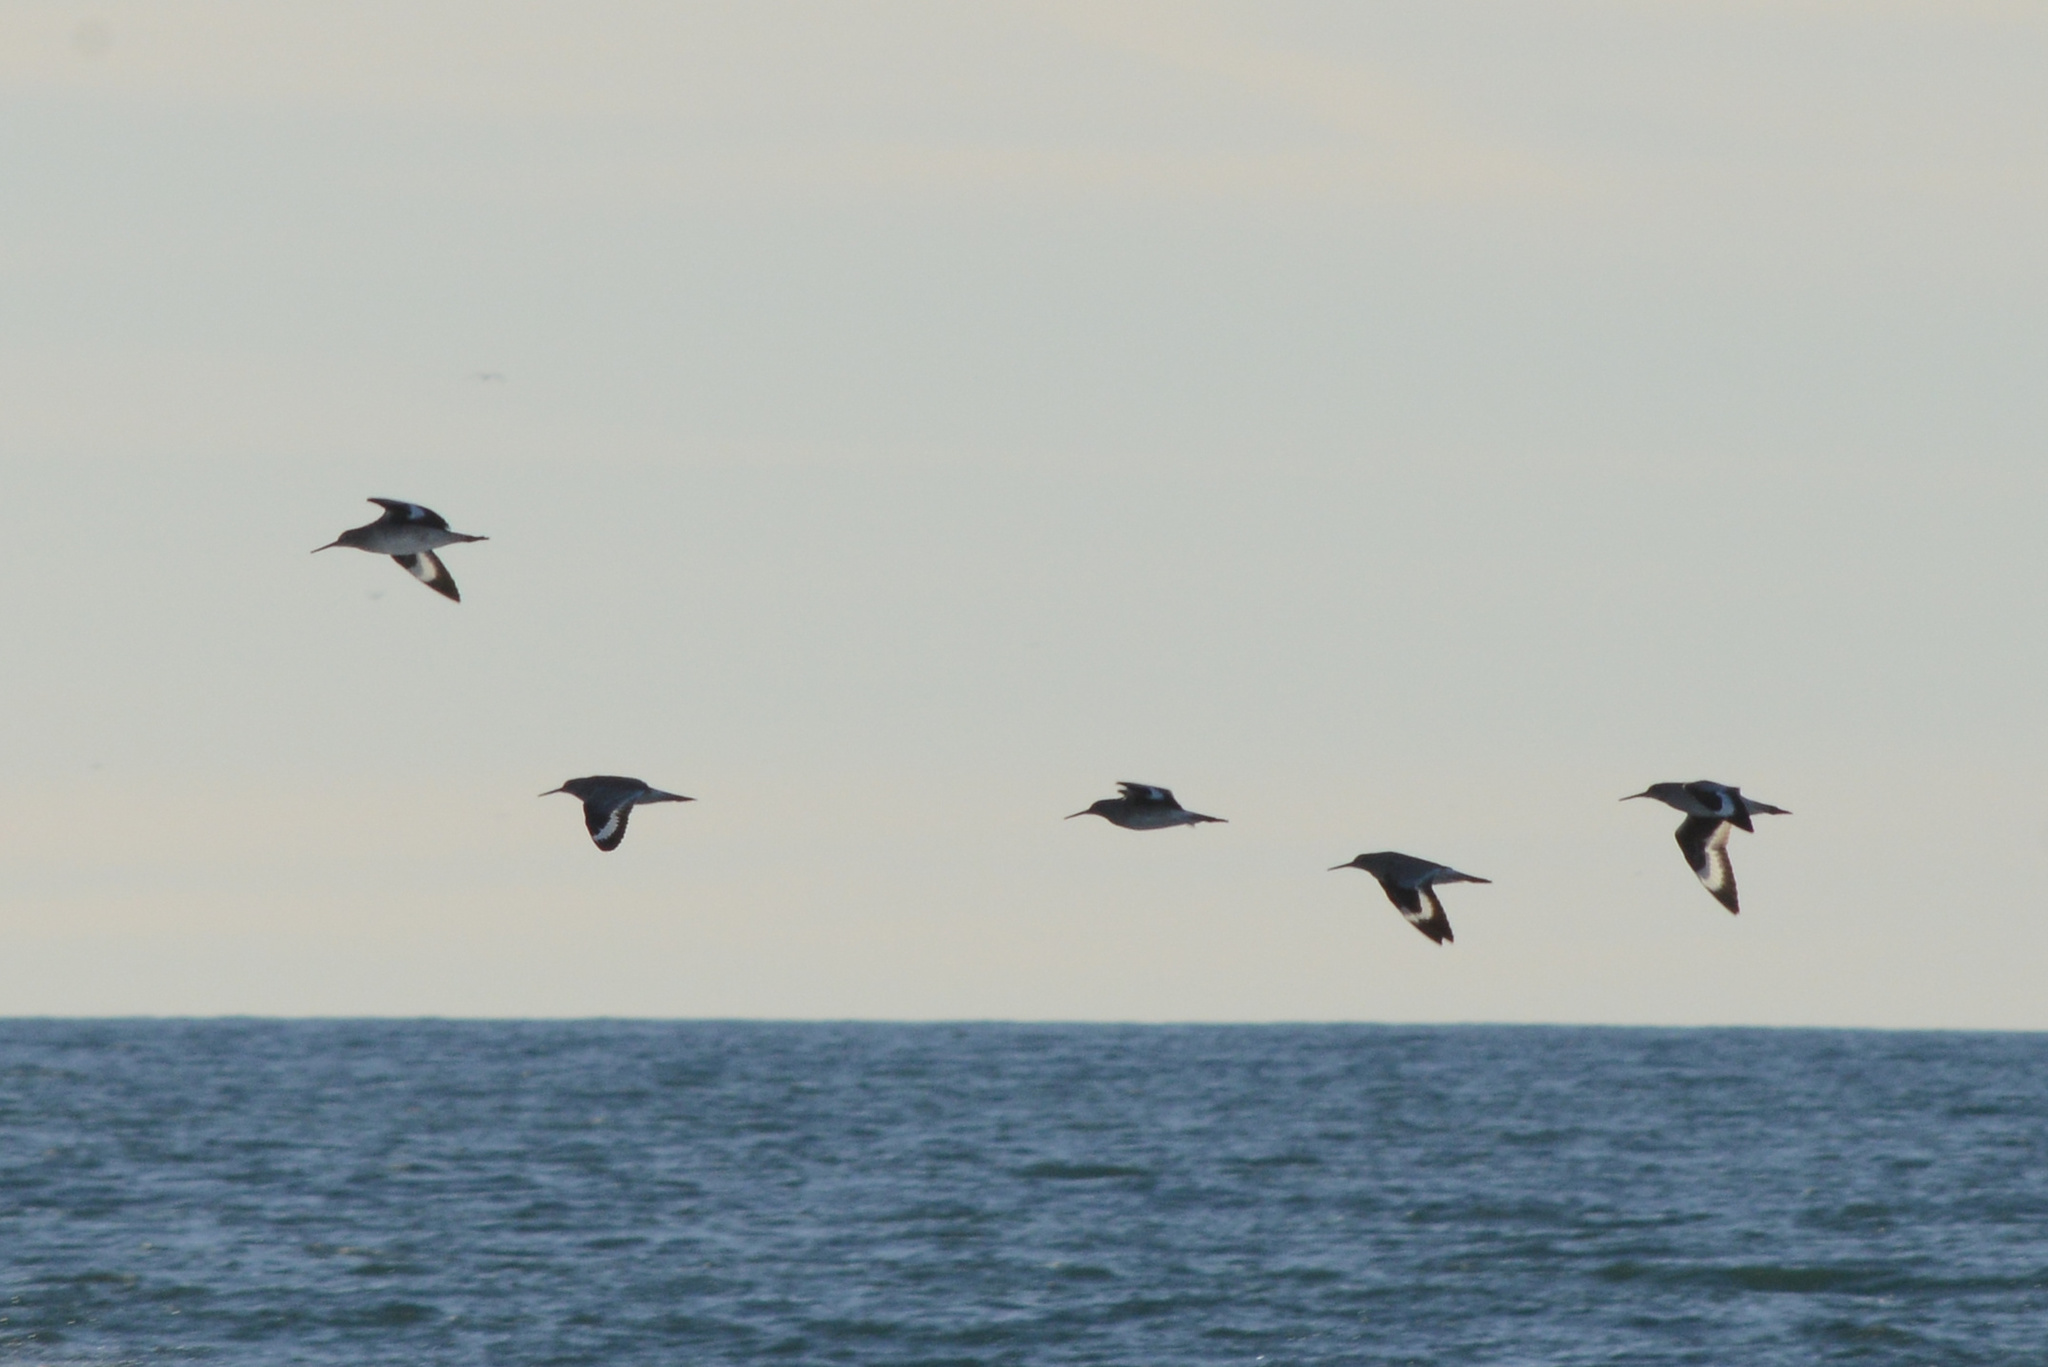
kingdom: Animalia
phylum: Chordata
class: Aves
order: Charadriiformes
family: Scolopacidae
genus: Tringa
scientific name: Tringa semipalmata
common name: Willet
